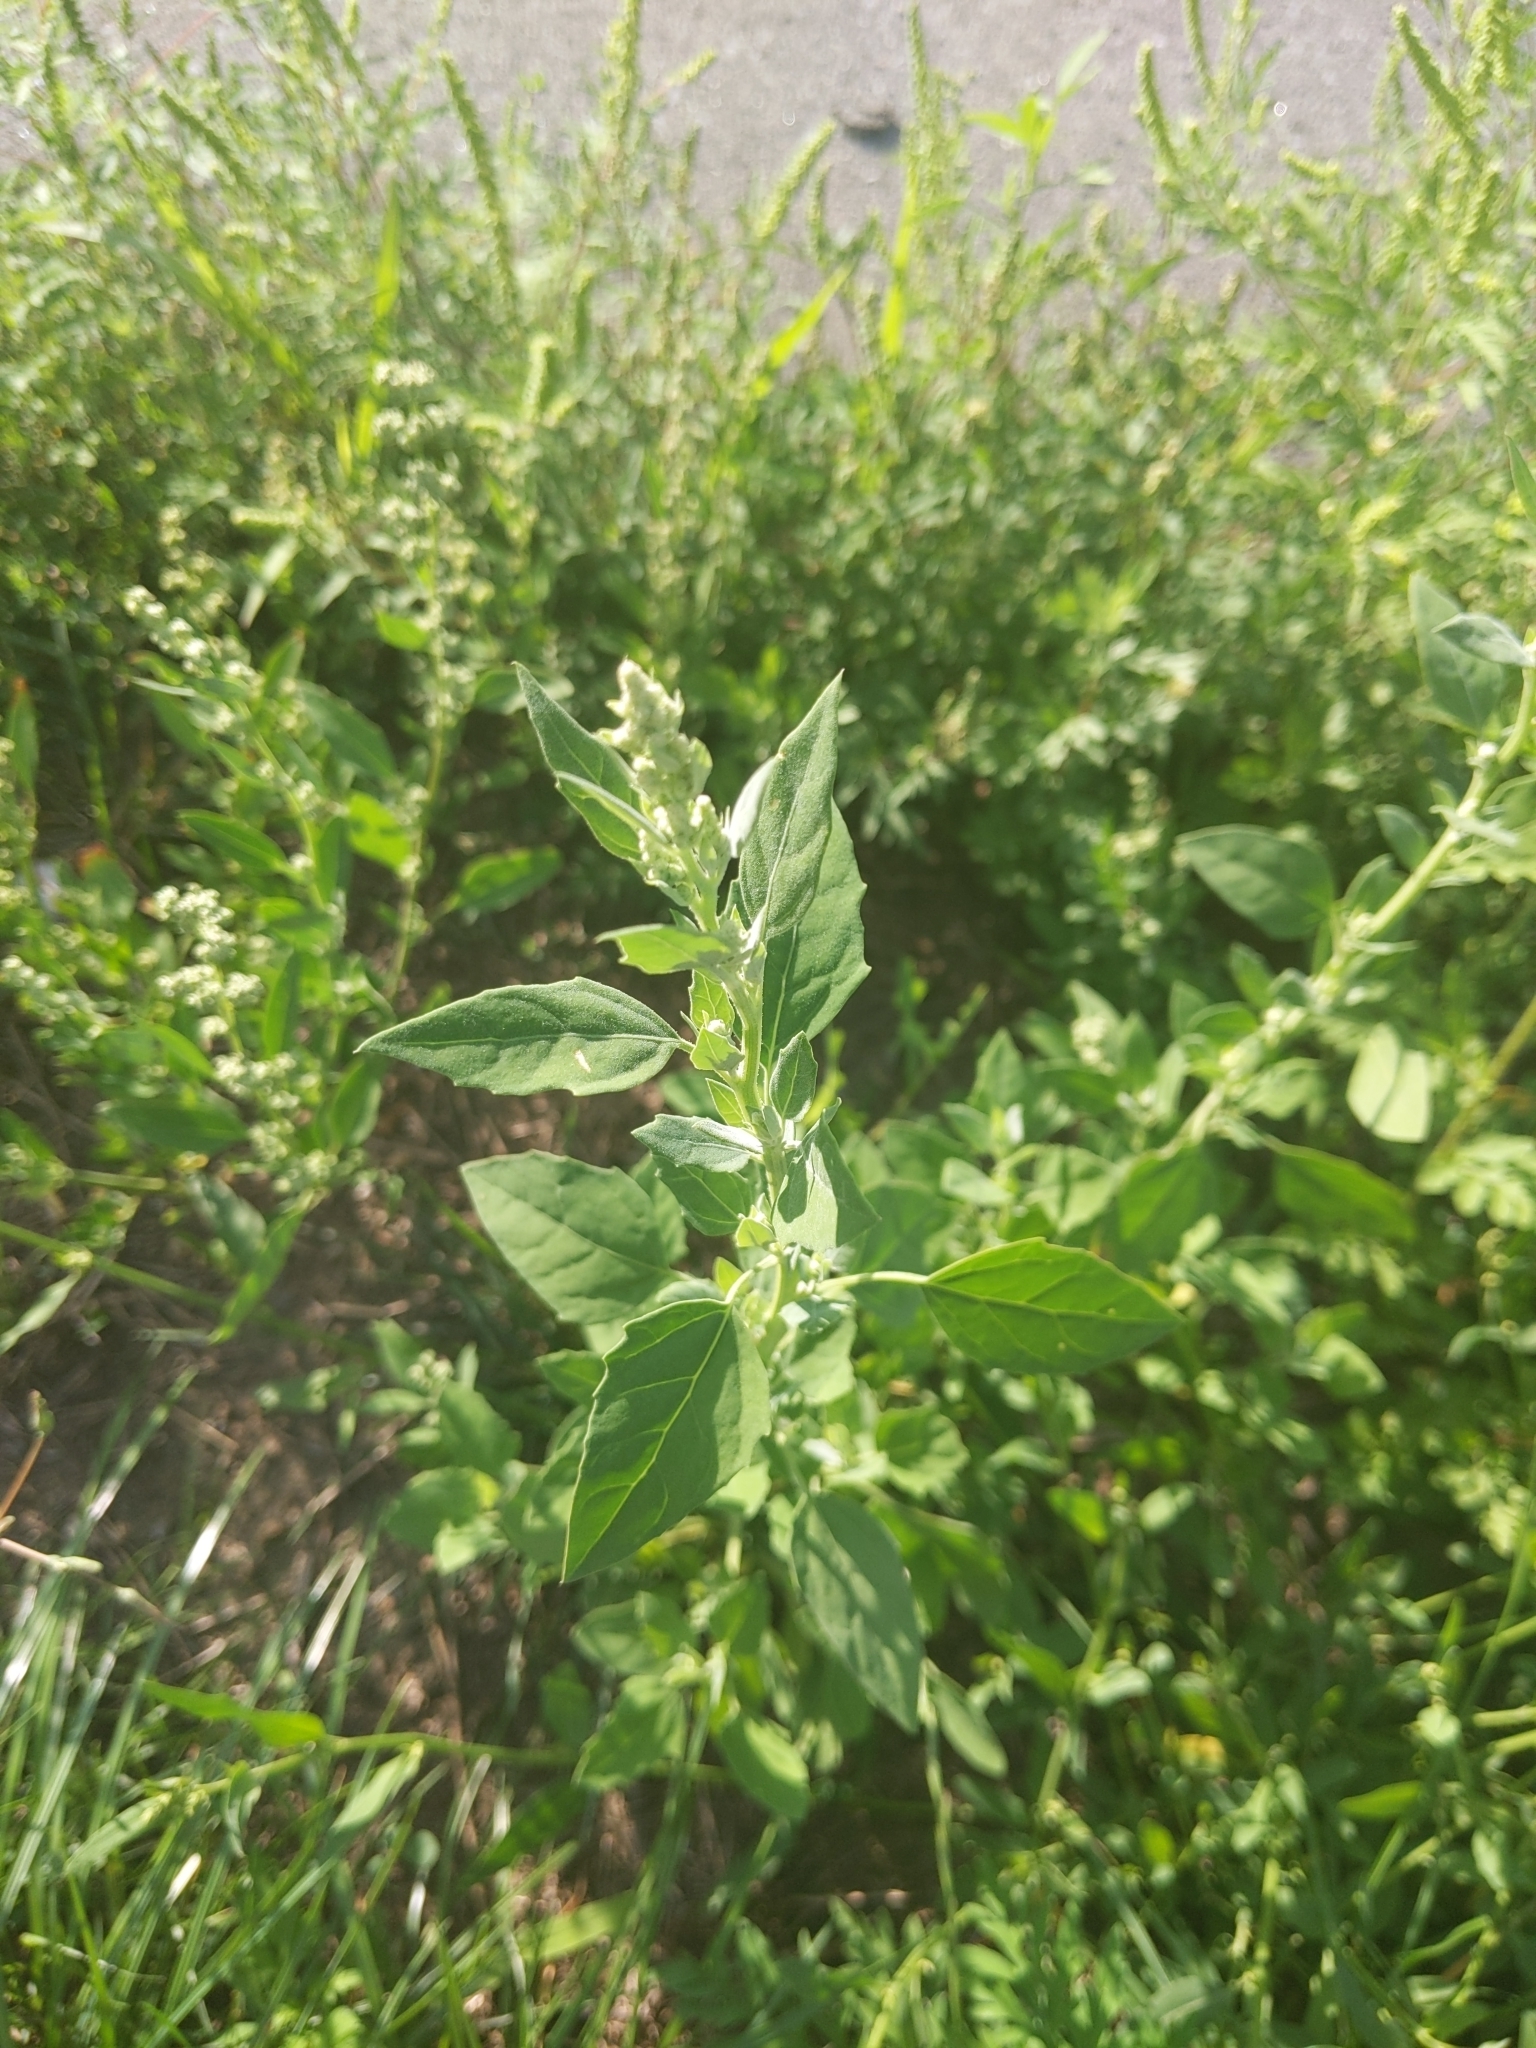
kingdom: Plantae
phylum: Tracheophyta
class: Magnoliopsida
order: Caryophyllales
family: Amaranthaceae
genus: Chenopodium
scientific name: Chenopodium album
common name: Fat-hen
